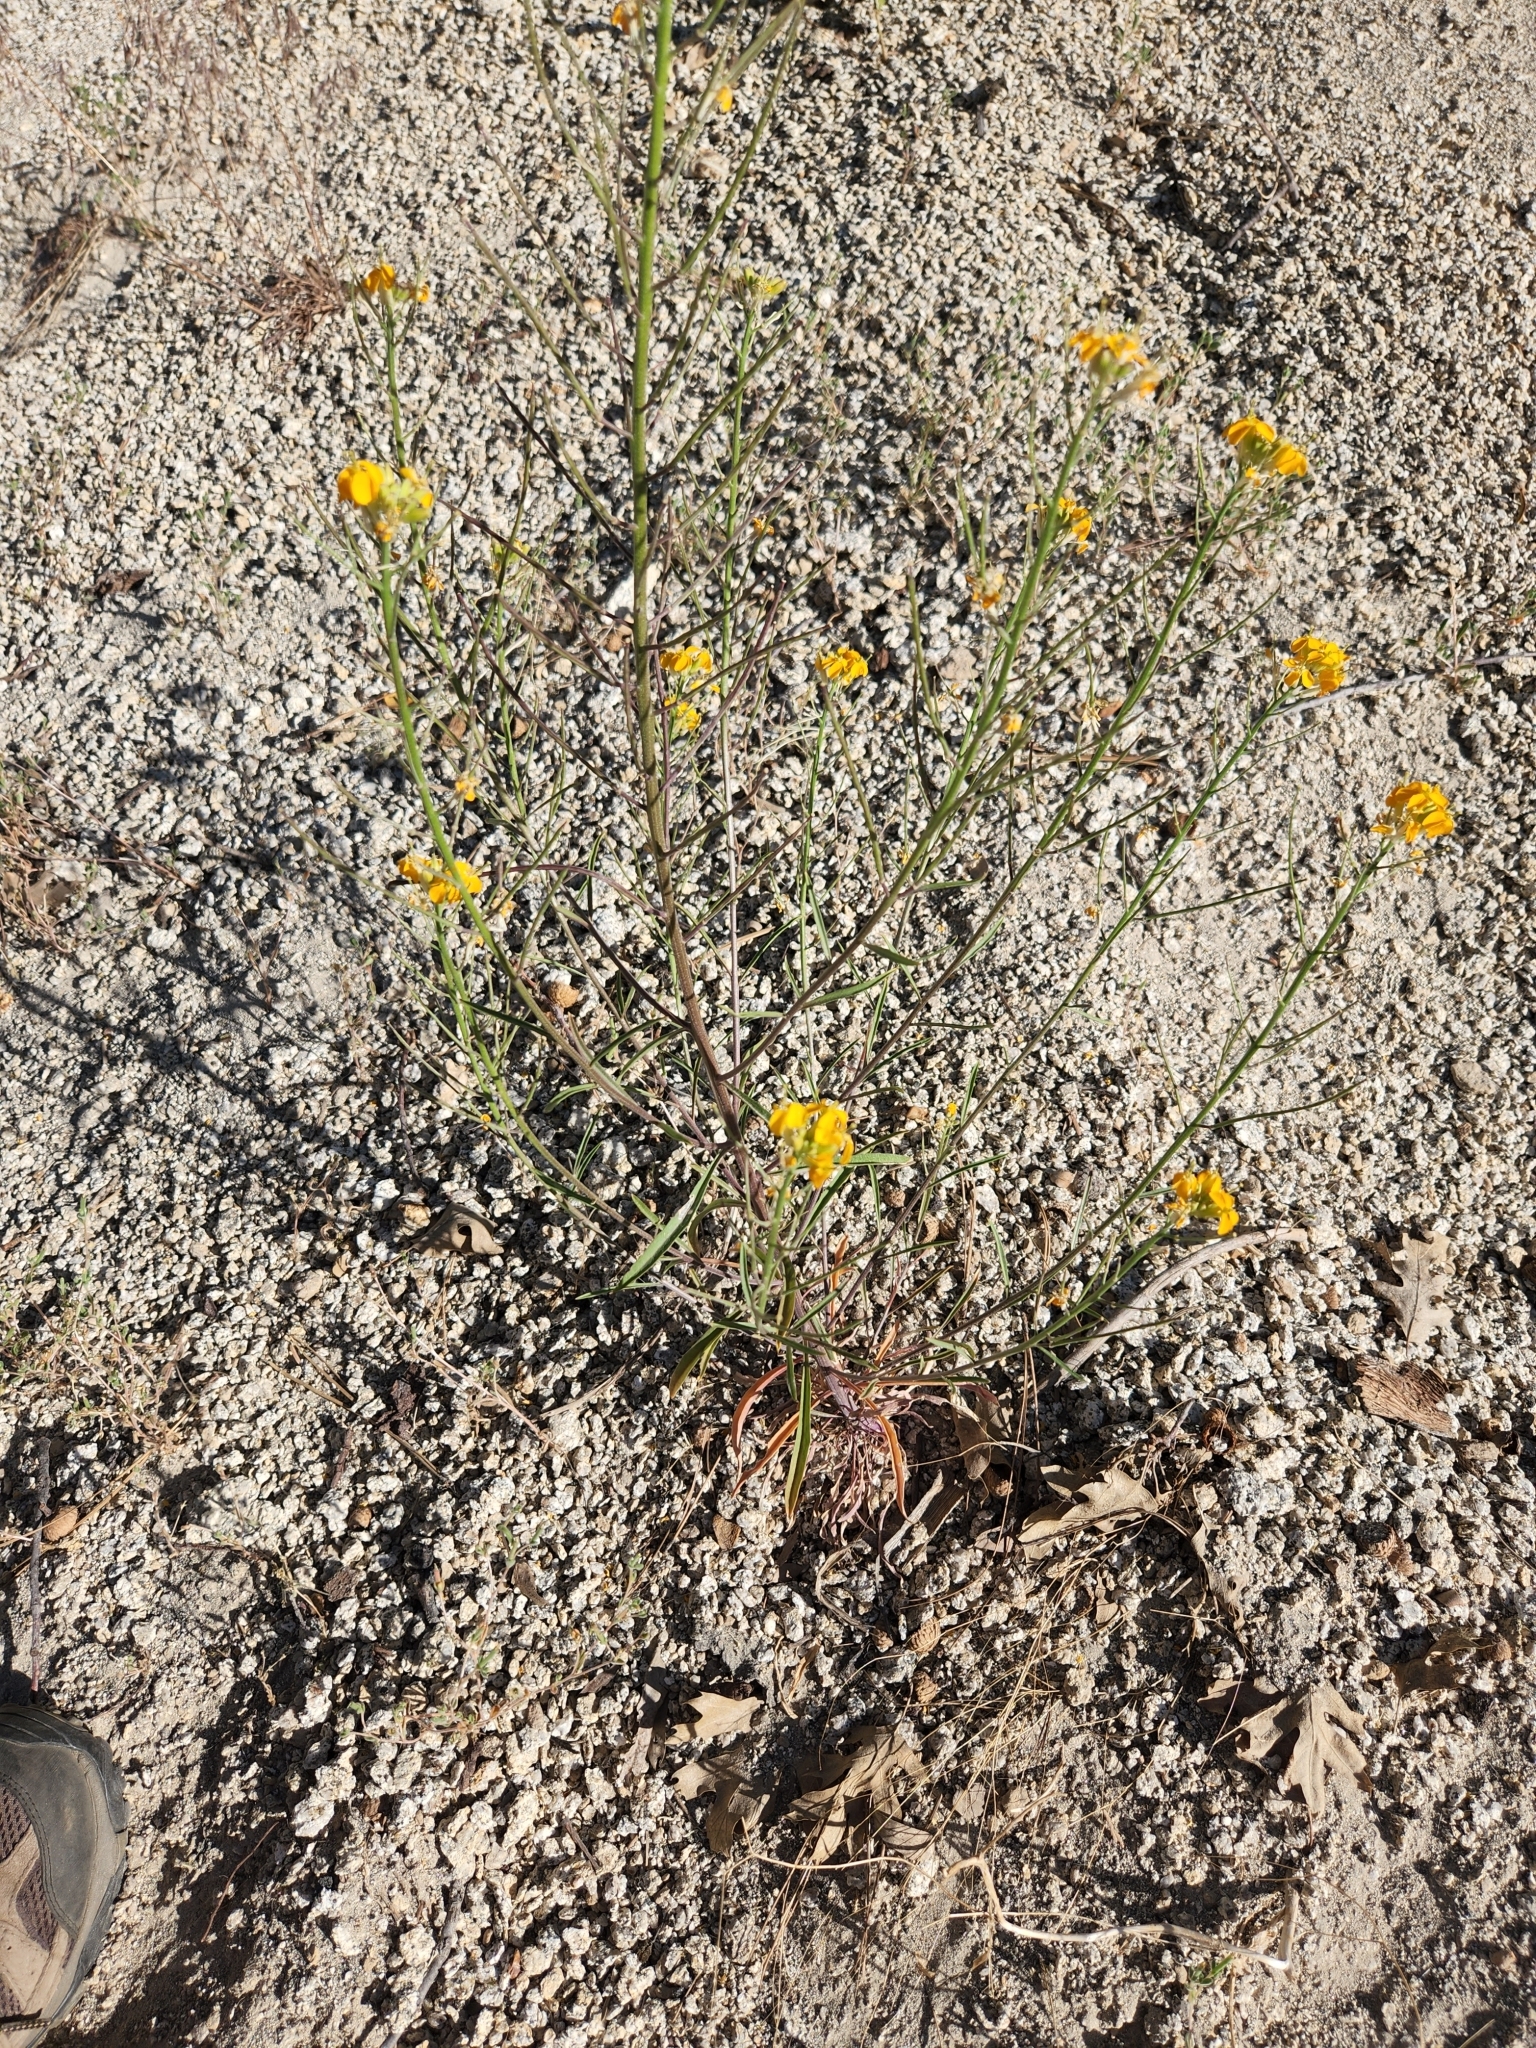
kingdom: Plantae
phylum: Tracheophyta
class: Magnoliopsida
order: Brassicales
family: Brassicaceae
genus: Erysimum
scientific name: Erysimum capitatum
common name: Western wallflower
